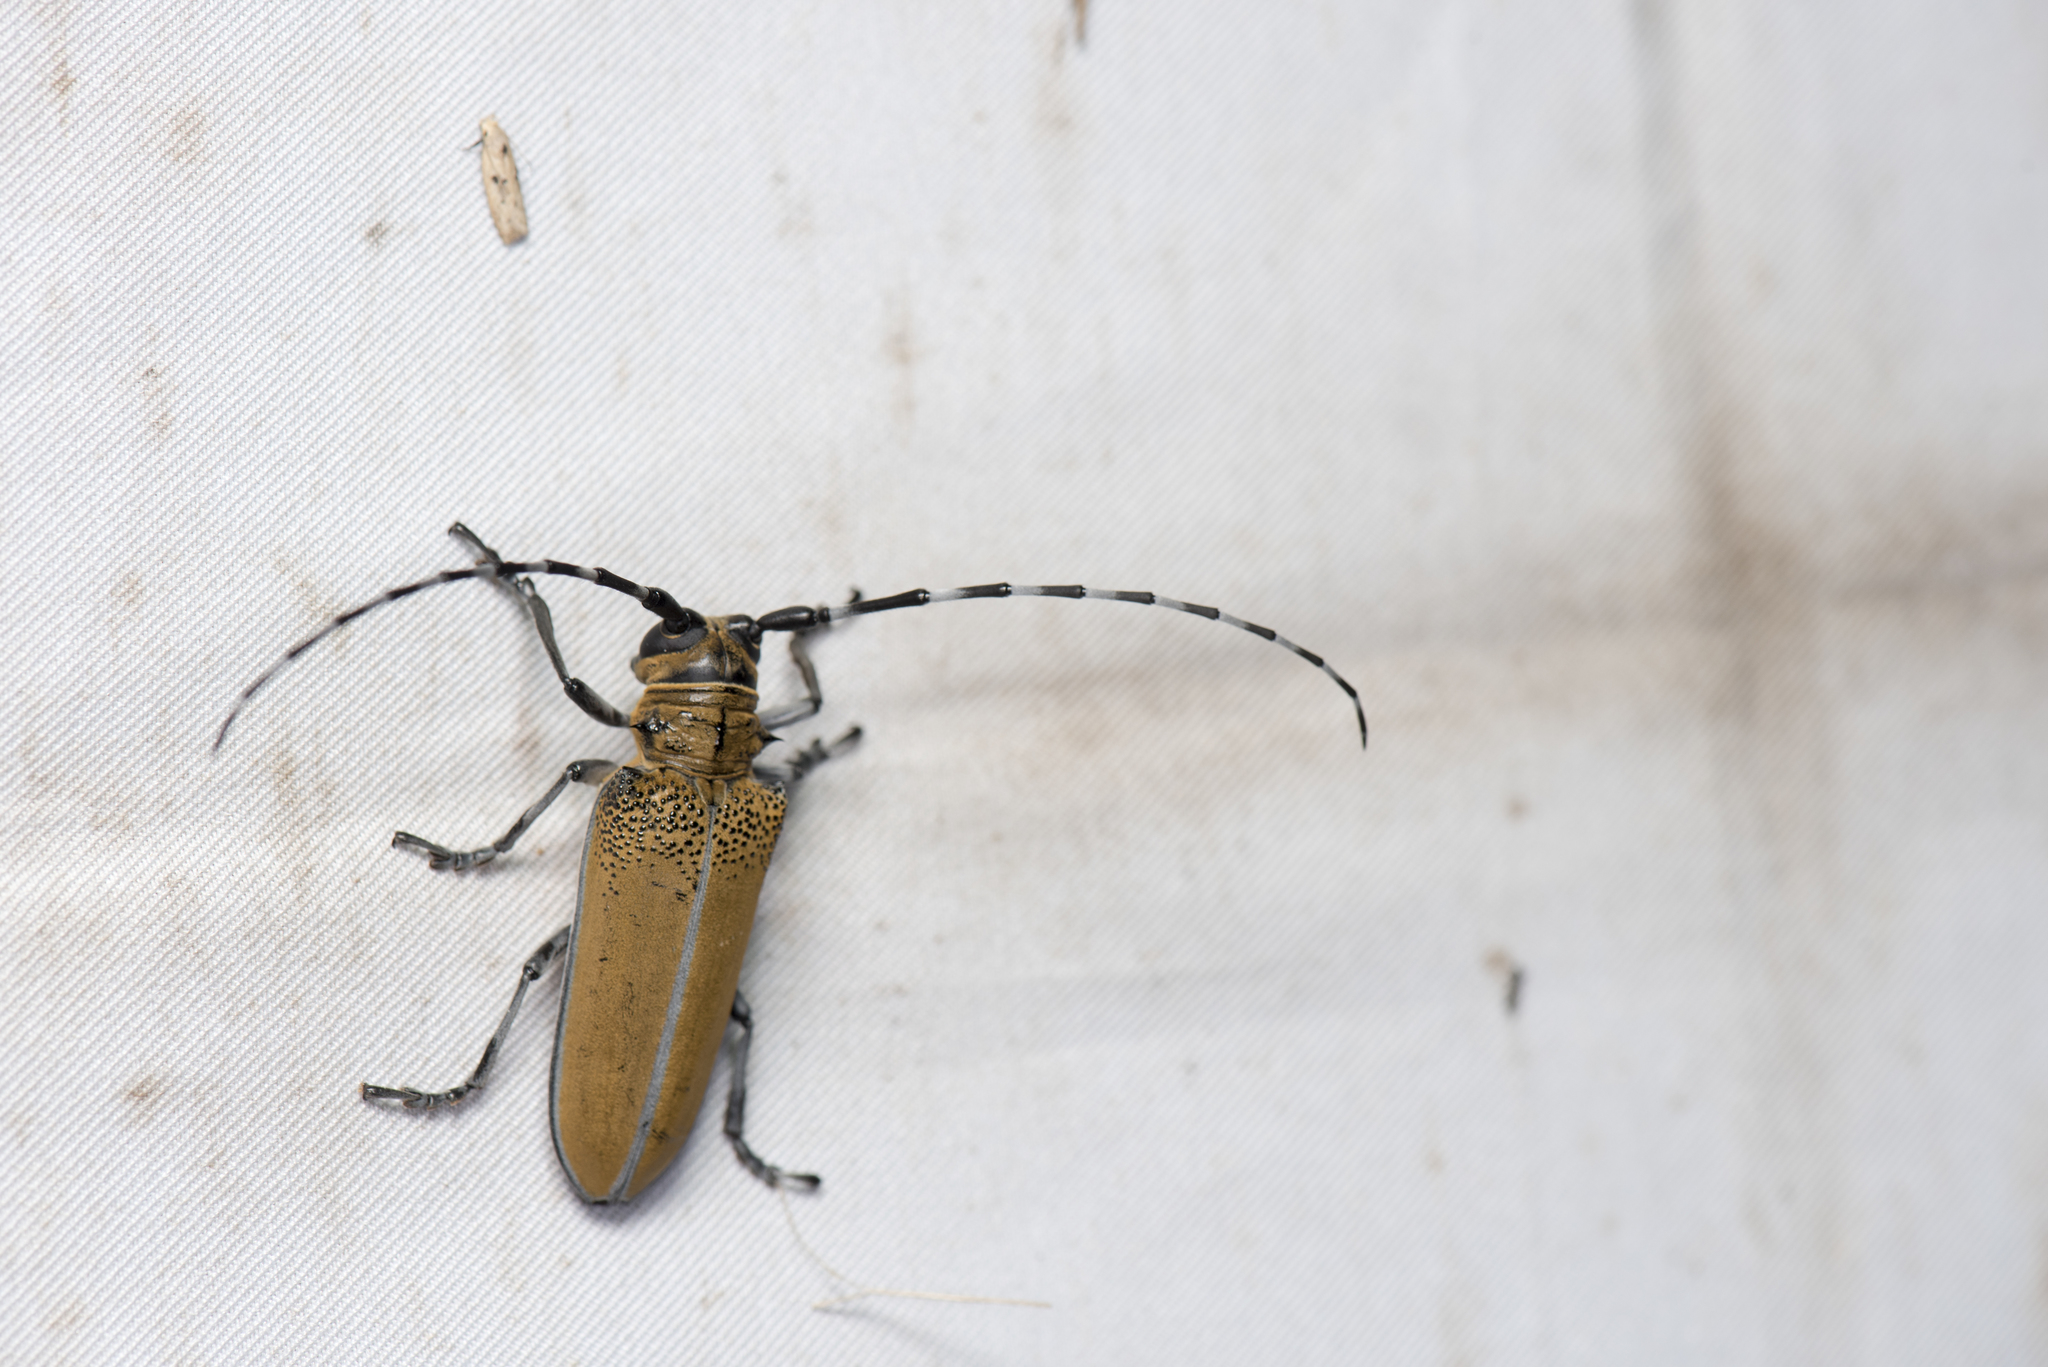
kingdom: Animalia
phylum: Arthropoda
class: Insecta
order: Coleoptera
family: Cerambycidae
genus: Apriona
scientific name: Apriona rugicollis
